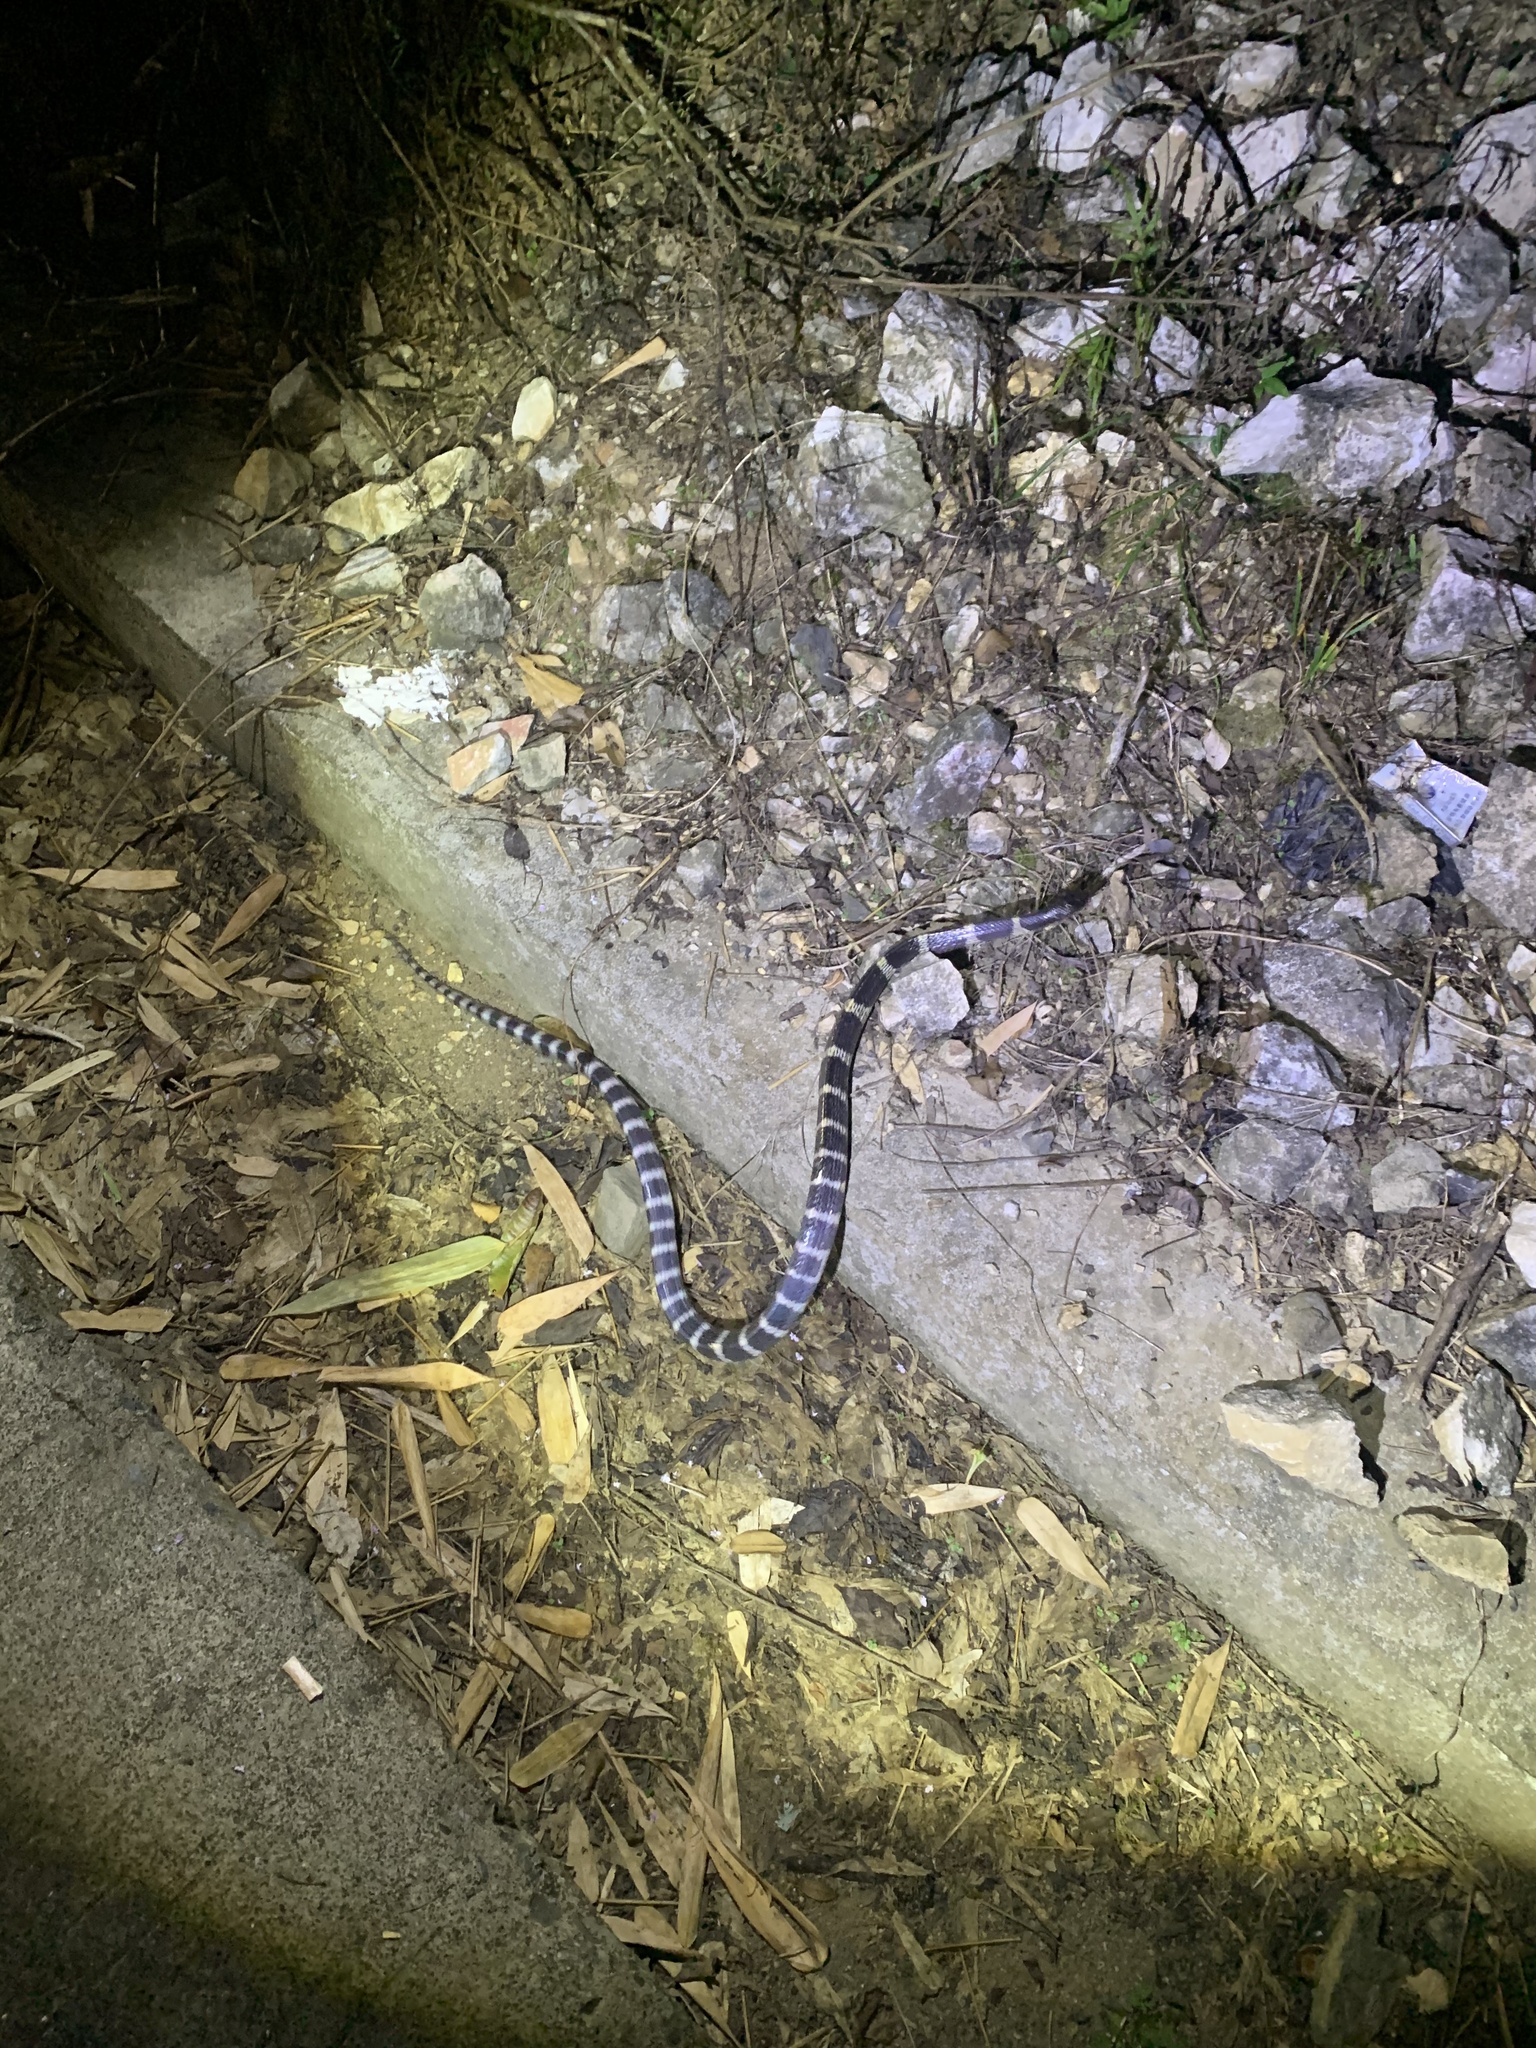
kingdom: Animalia
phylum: Chordata
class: Squamata
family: Elapidae
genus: Bungarus
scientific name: Bungarus multicinctus
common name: Many-banded krait
